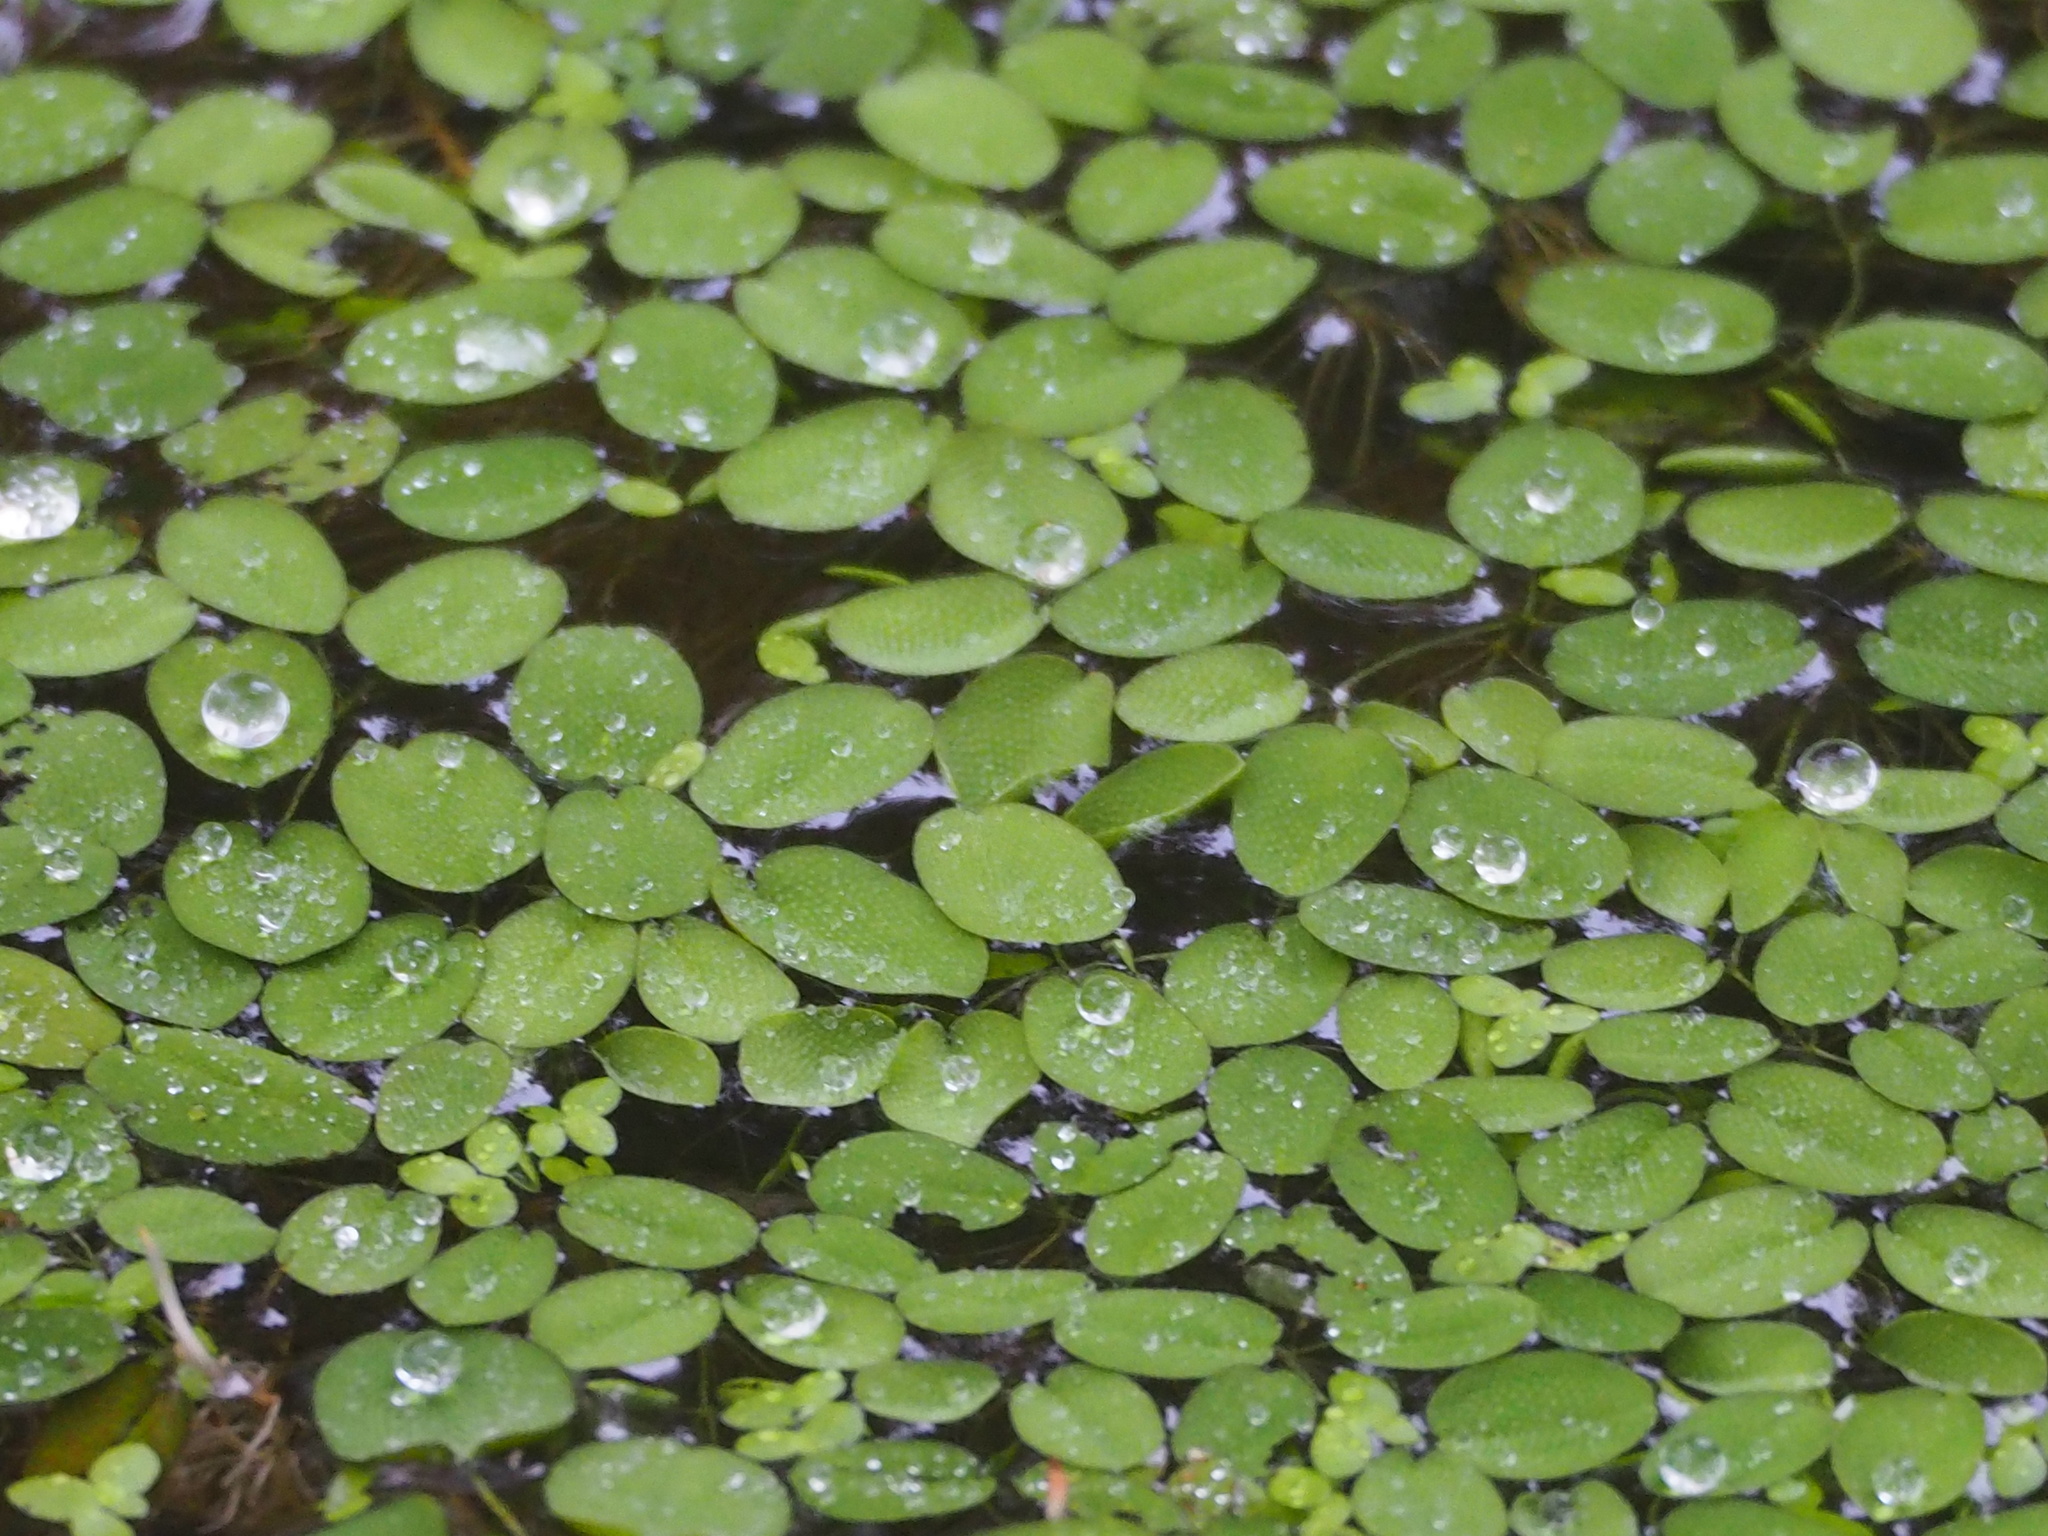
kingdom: Plantae
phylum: Tracheophyta
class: Polypodiopsida
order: Salviniales
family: Salviniaceae
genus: Salvinia
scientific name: Salvinia molesta
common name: Kariba weed
